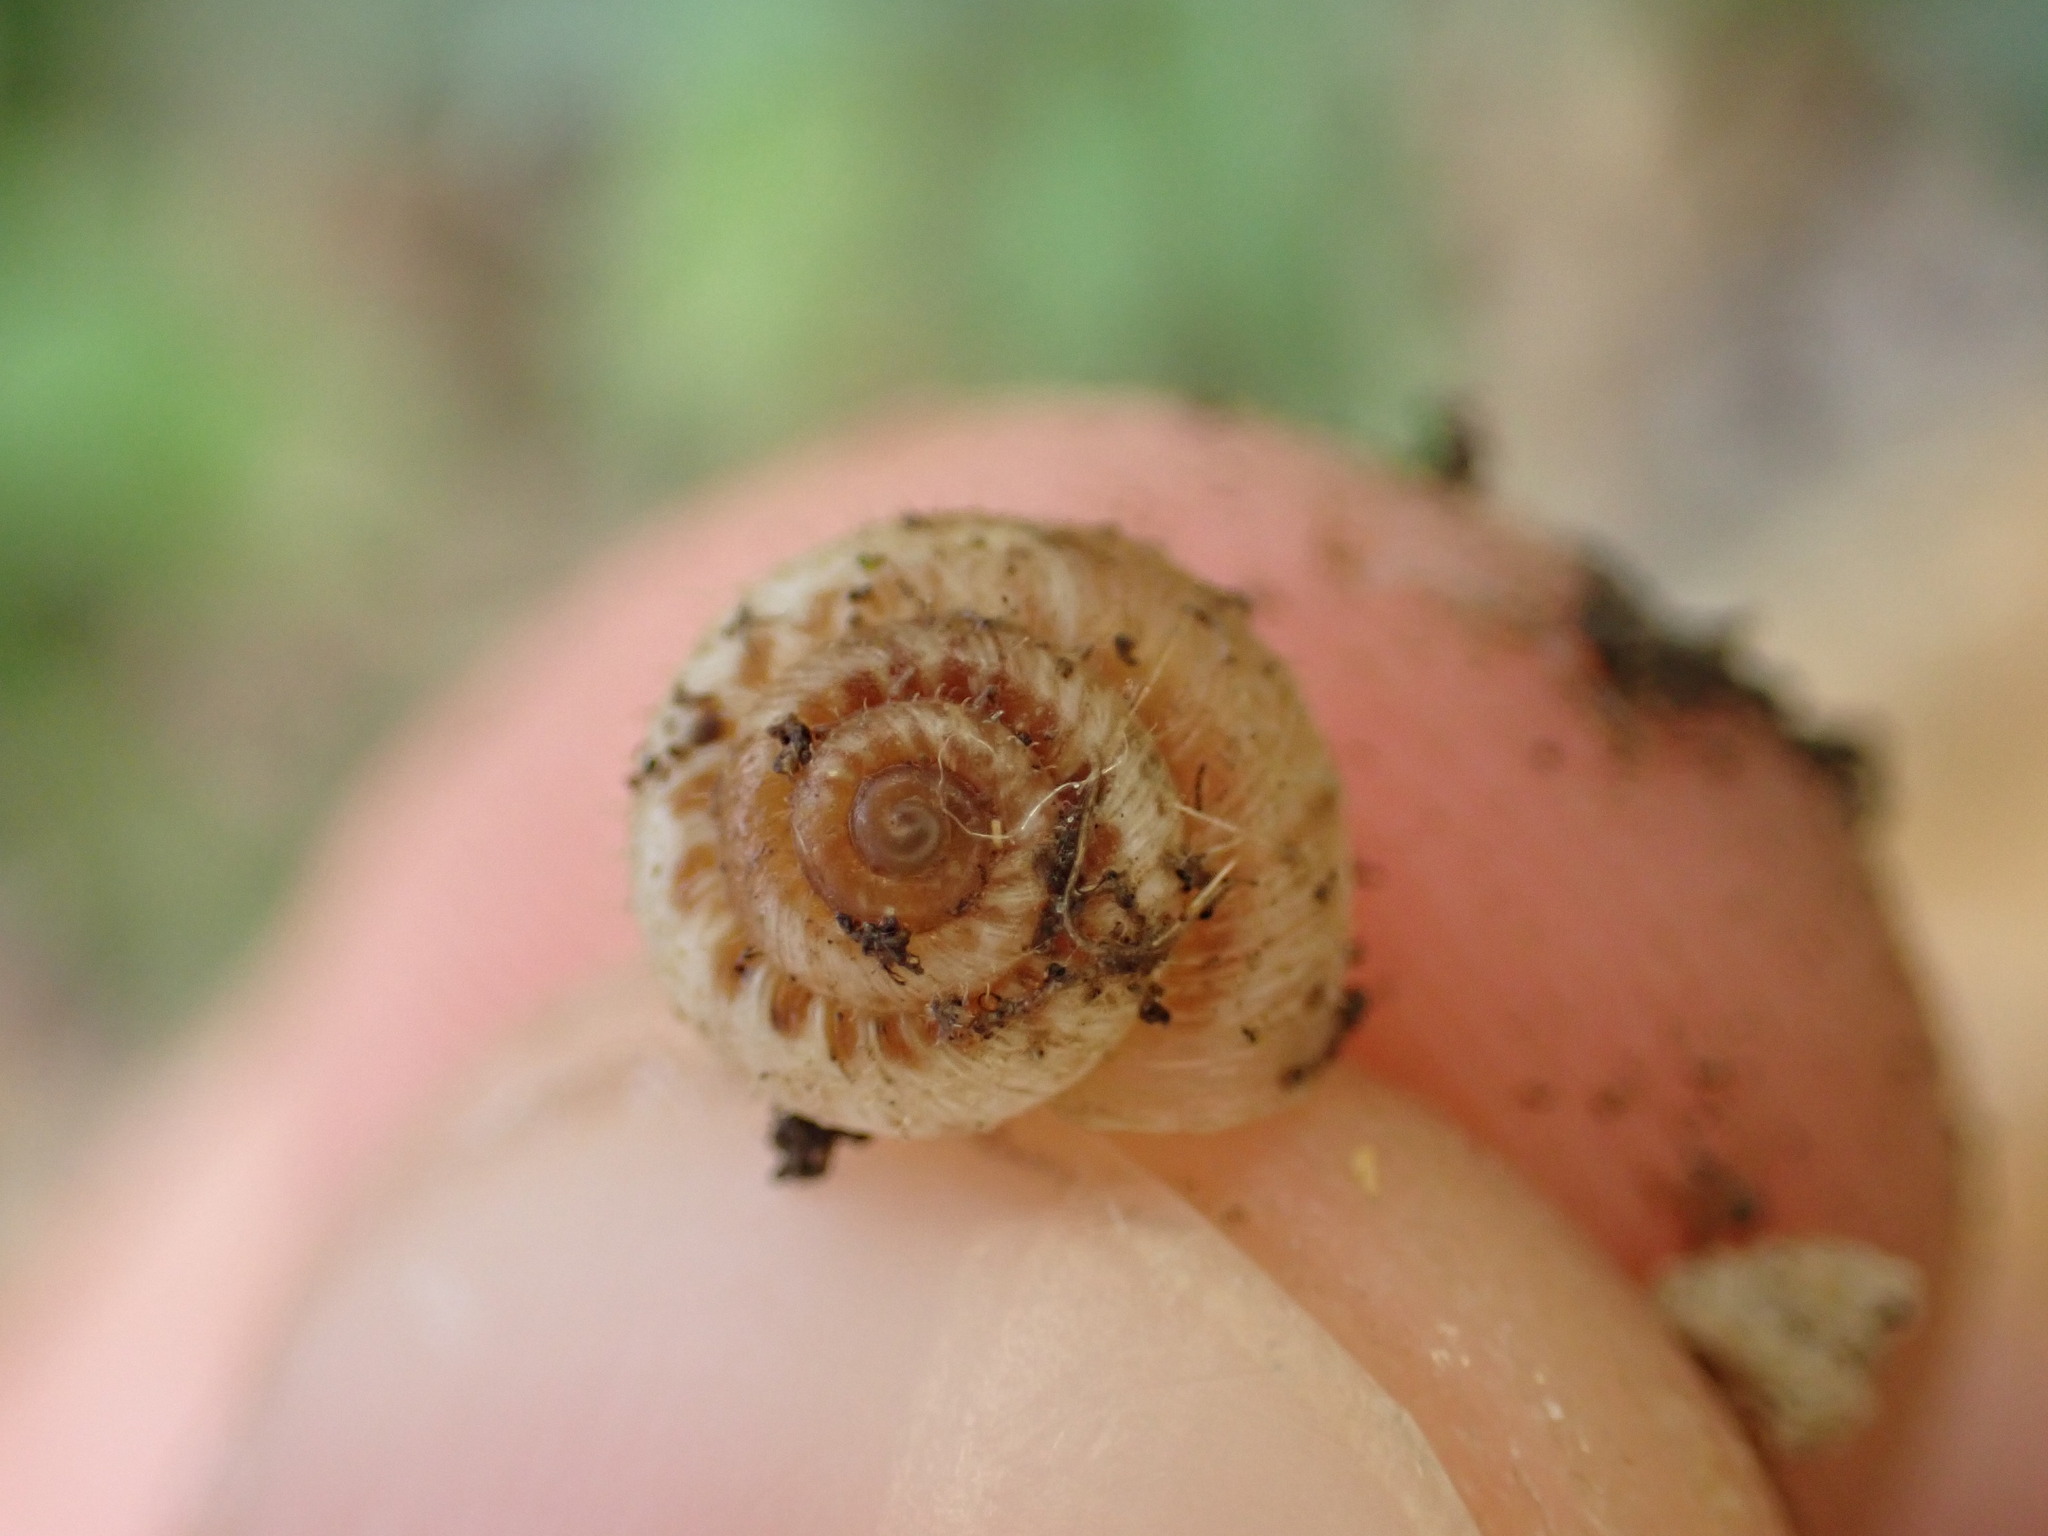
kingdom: Animalia
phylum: Mollusca
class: Gastropoda
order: Stylommatophora
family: Geomitridae
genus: Xerotricha
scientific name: Xerotricha apicina
